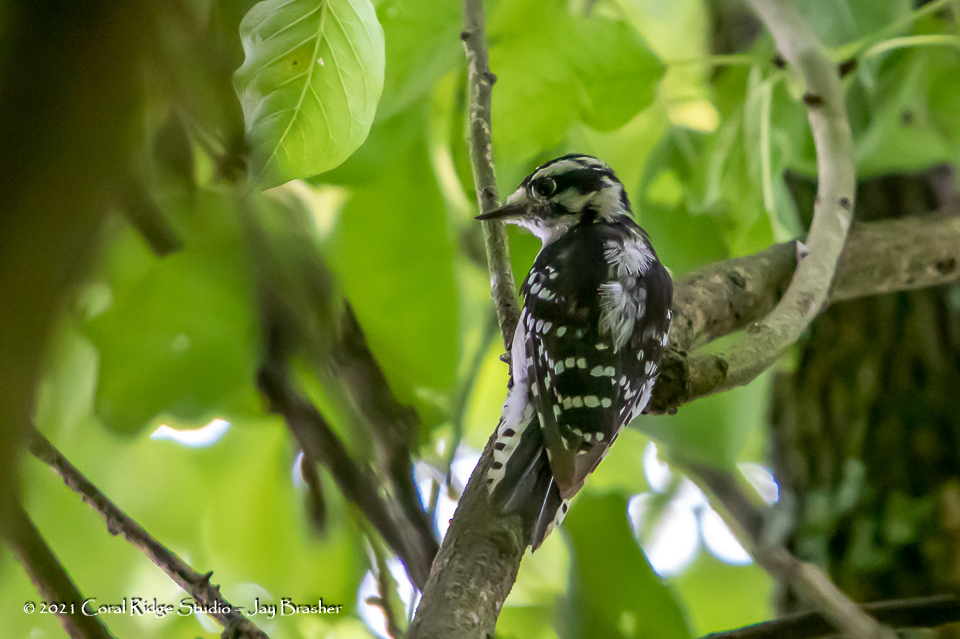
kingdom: Animalia
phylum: Chordata
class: Aves
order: Piciformes
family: Picidae
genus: Dryobates
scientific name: Dryobates pubescens
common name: Downy woodpecker
